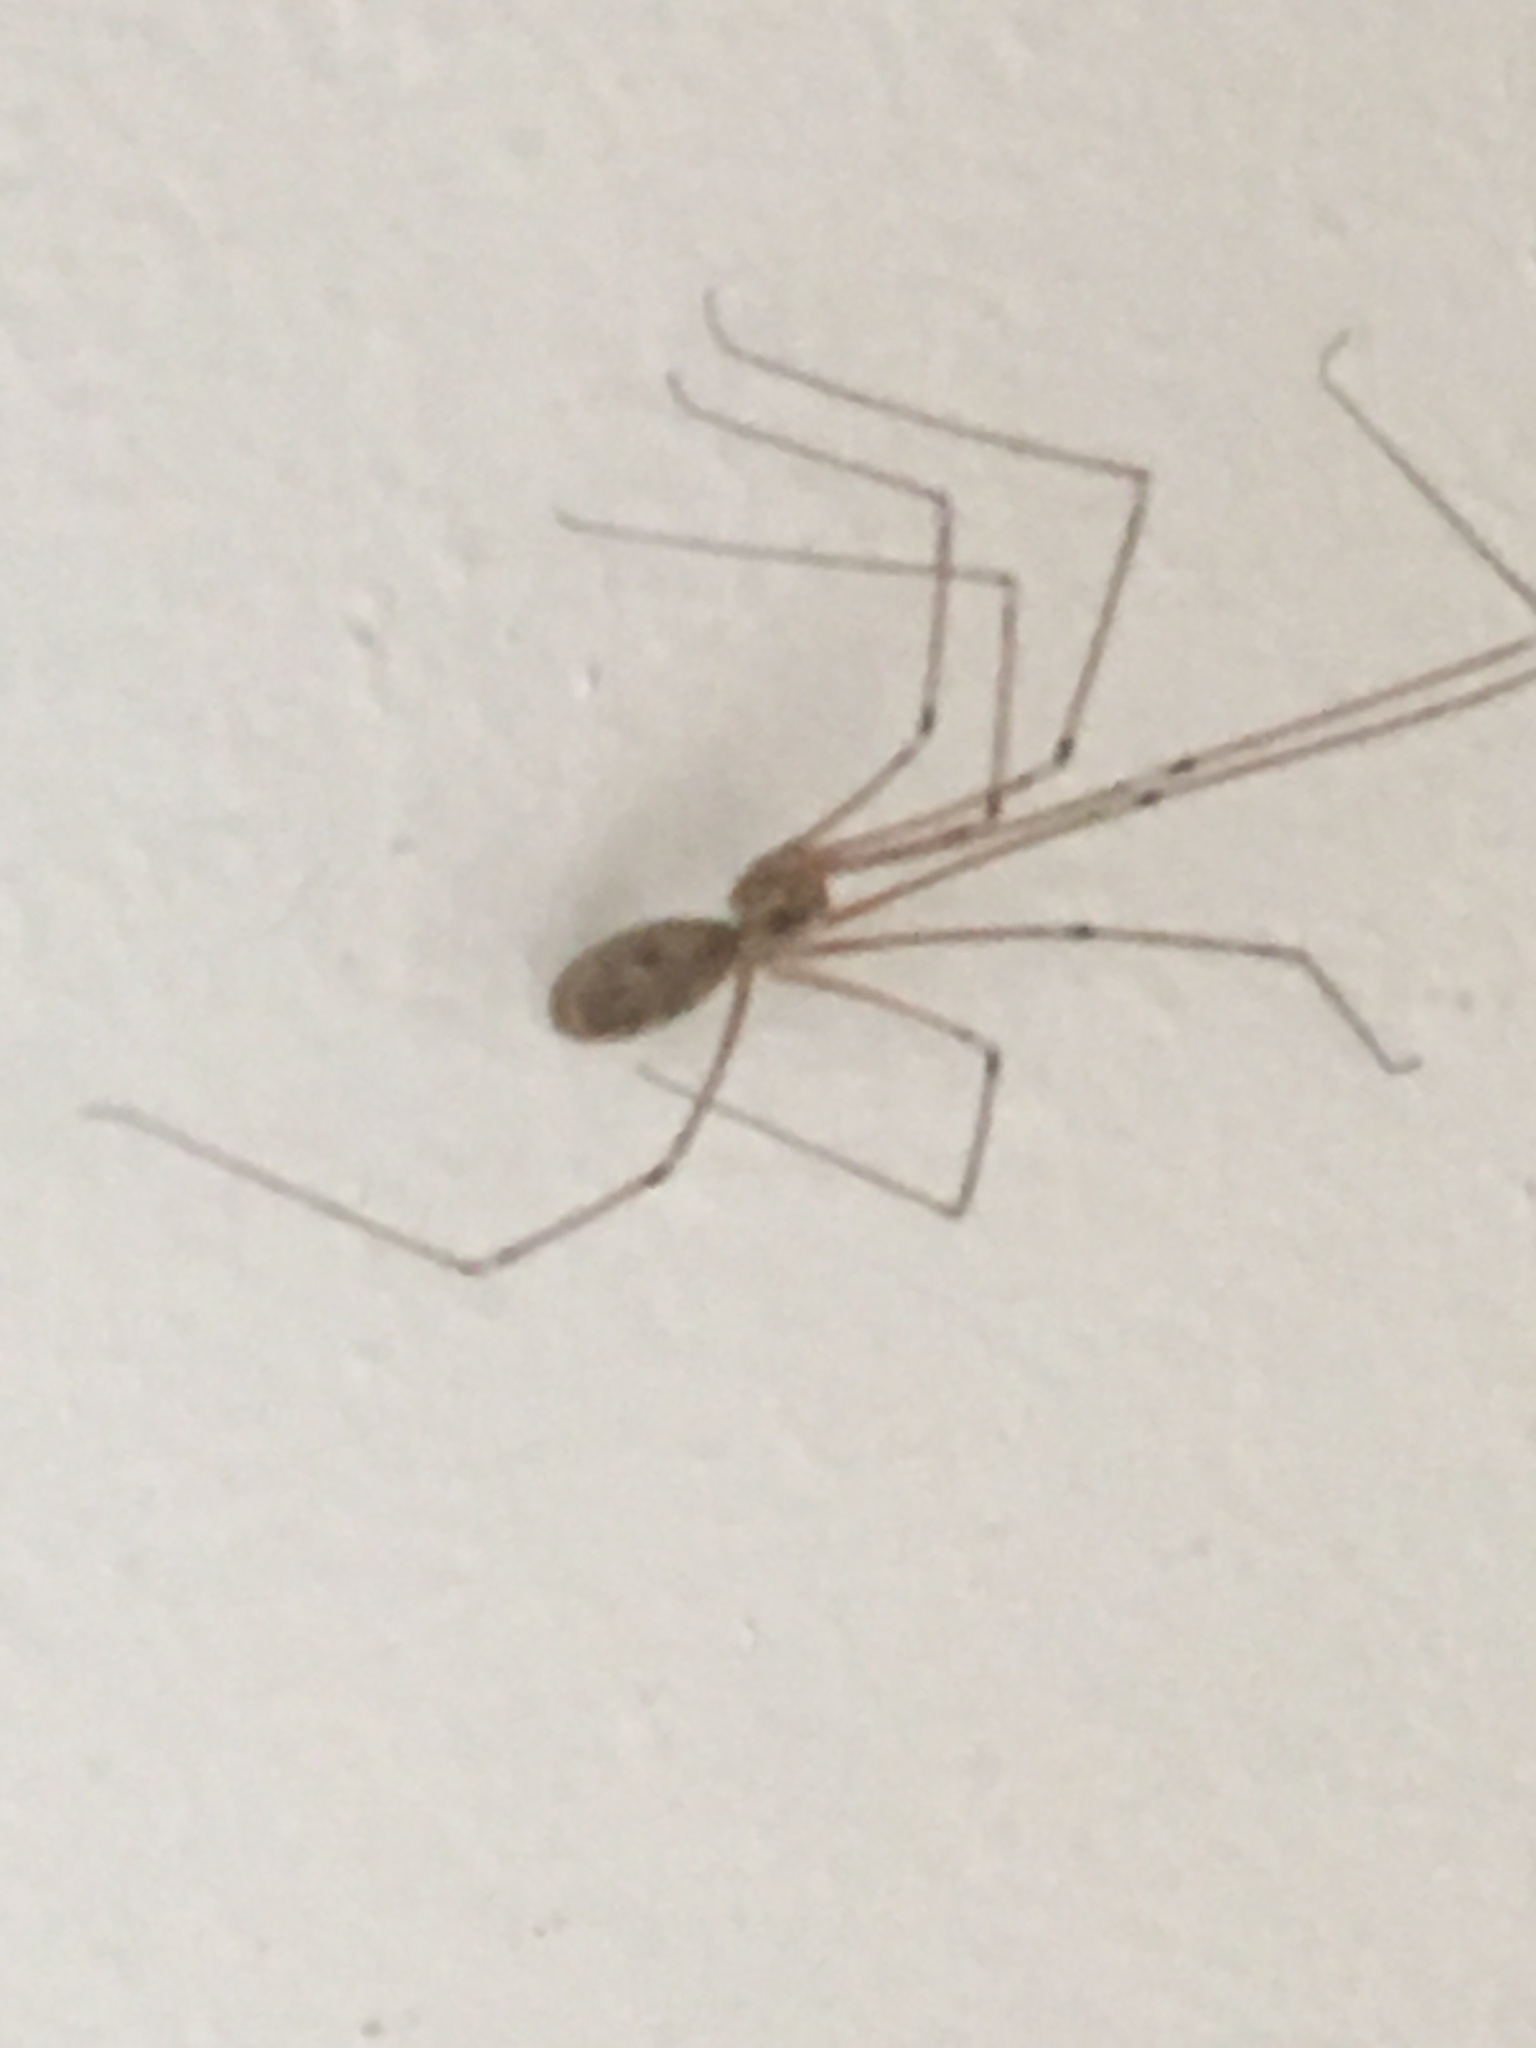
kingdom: Animalia
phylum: Arthropoda
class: Arachnida
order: Araneae
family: Pholcidae
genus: Pholcus
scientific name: Pholcus phalangioides
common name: Longbodied cellar spider
